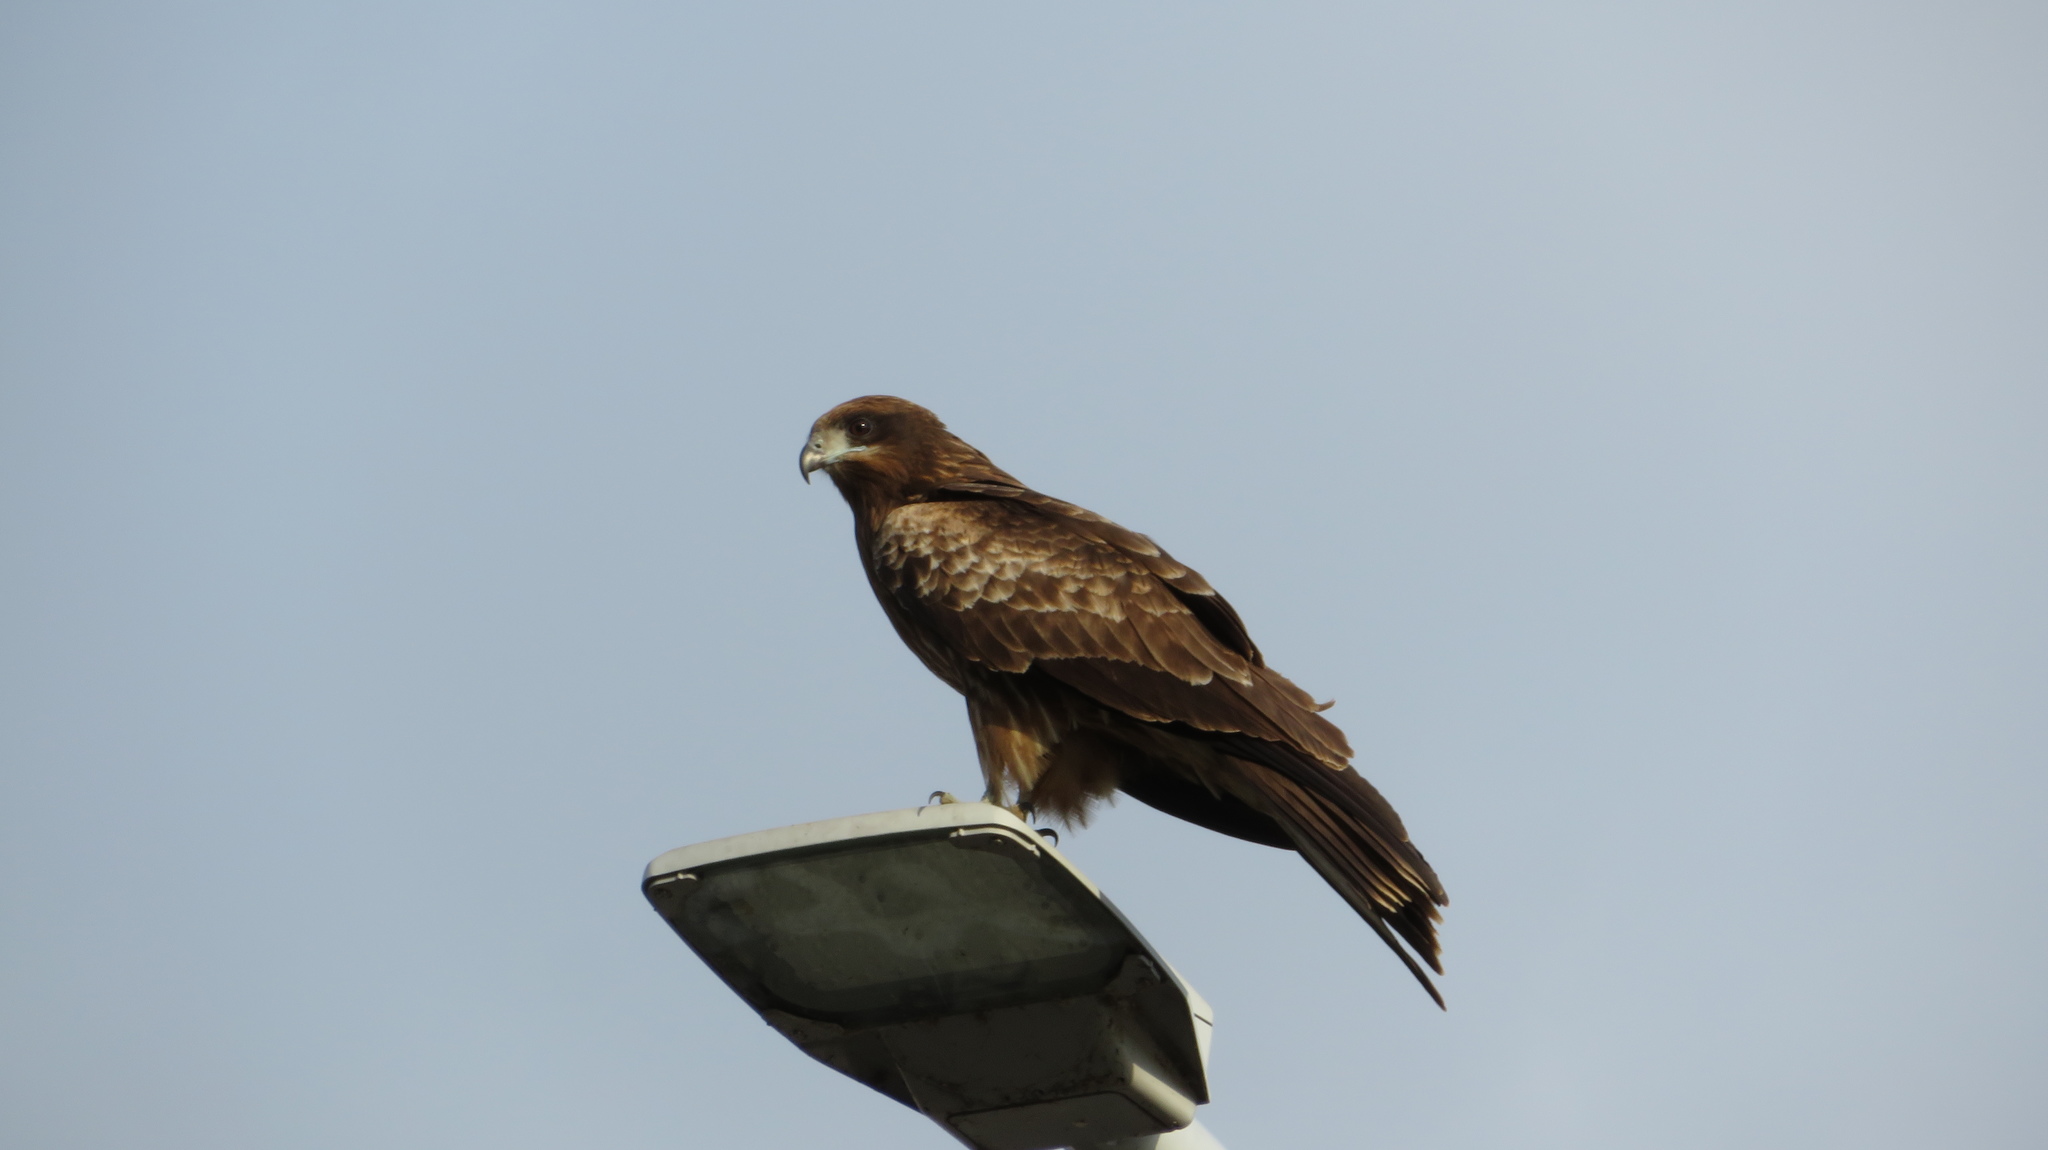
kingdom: Animalia
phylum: Chordata
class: Aves
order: Accipitriformes
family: Accipitridae
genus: Milvus
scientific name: Milvus migrans
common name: Black kite
